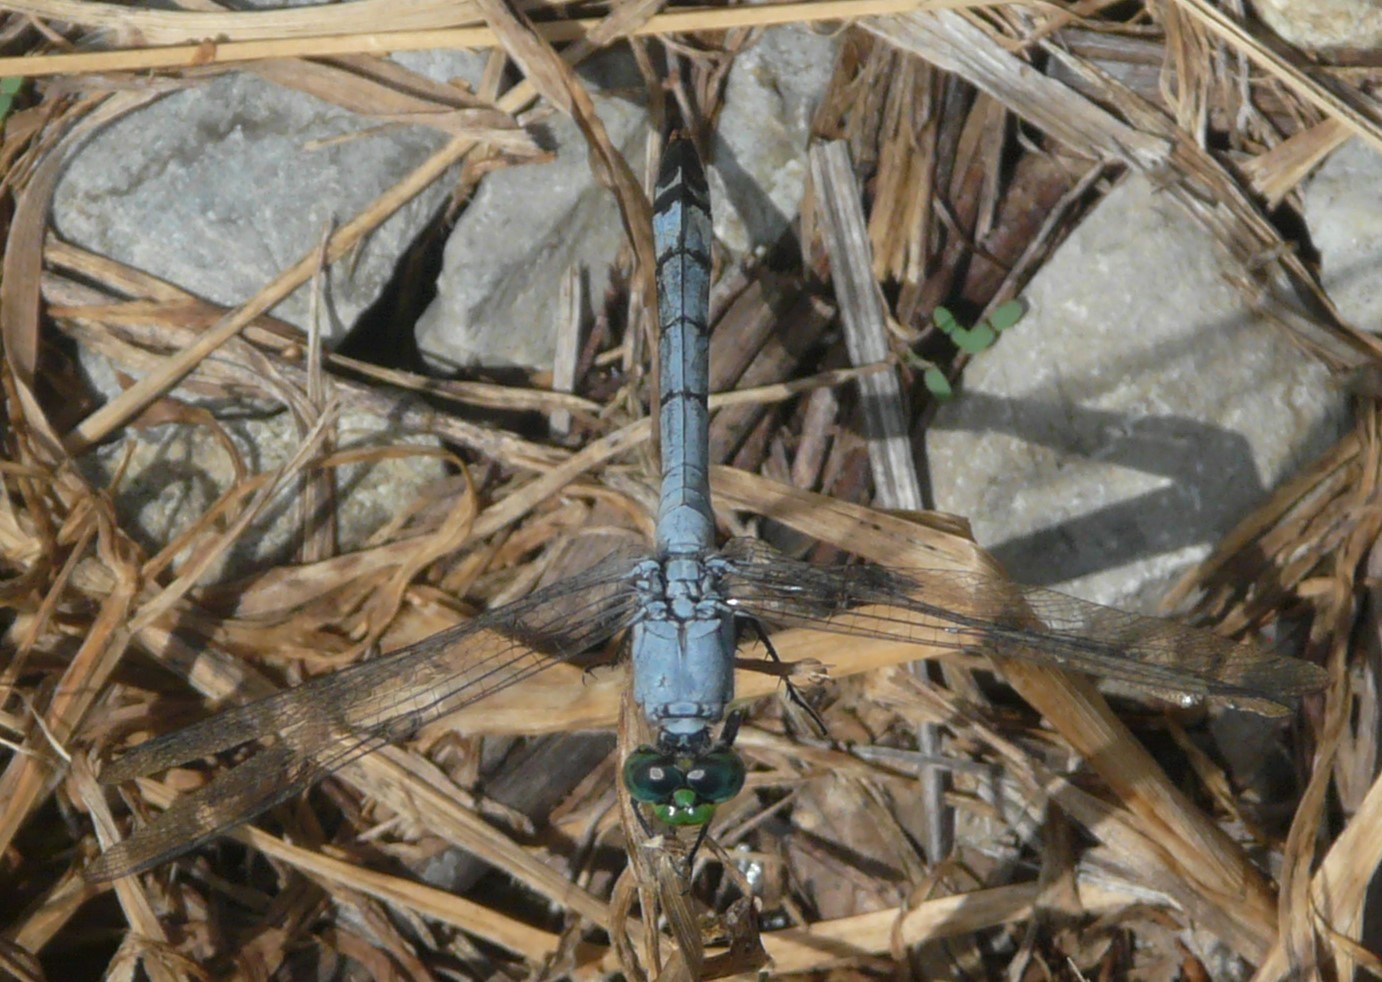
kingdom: Animalia
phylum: Arthropoda
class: Insecta
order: Odonata
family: Libellulidae
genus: Erythemis
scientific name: Erythemis simplicicollis
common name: Eastern pondhawk
